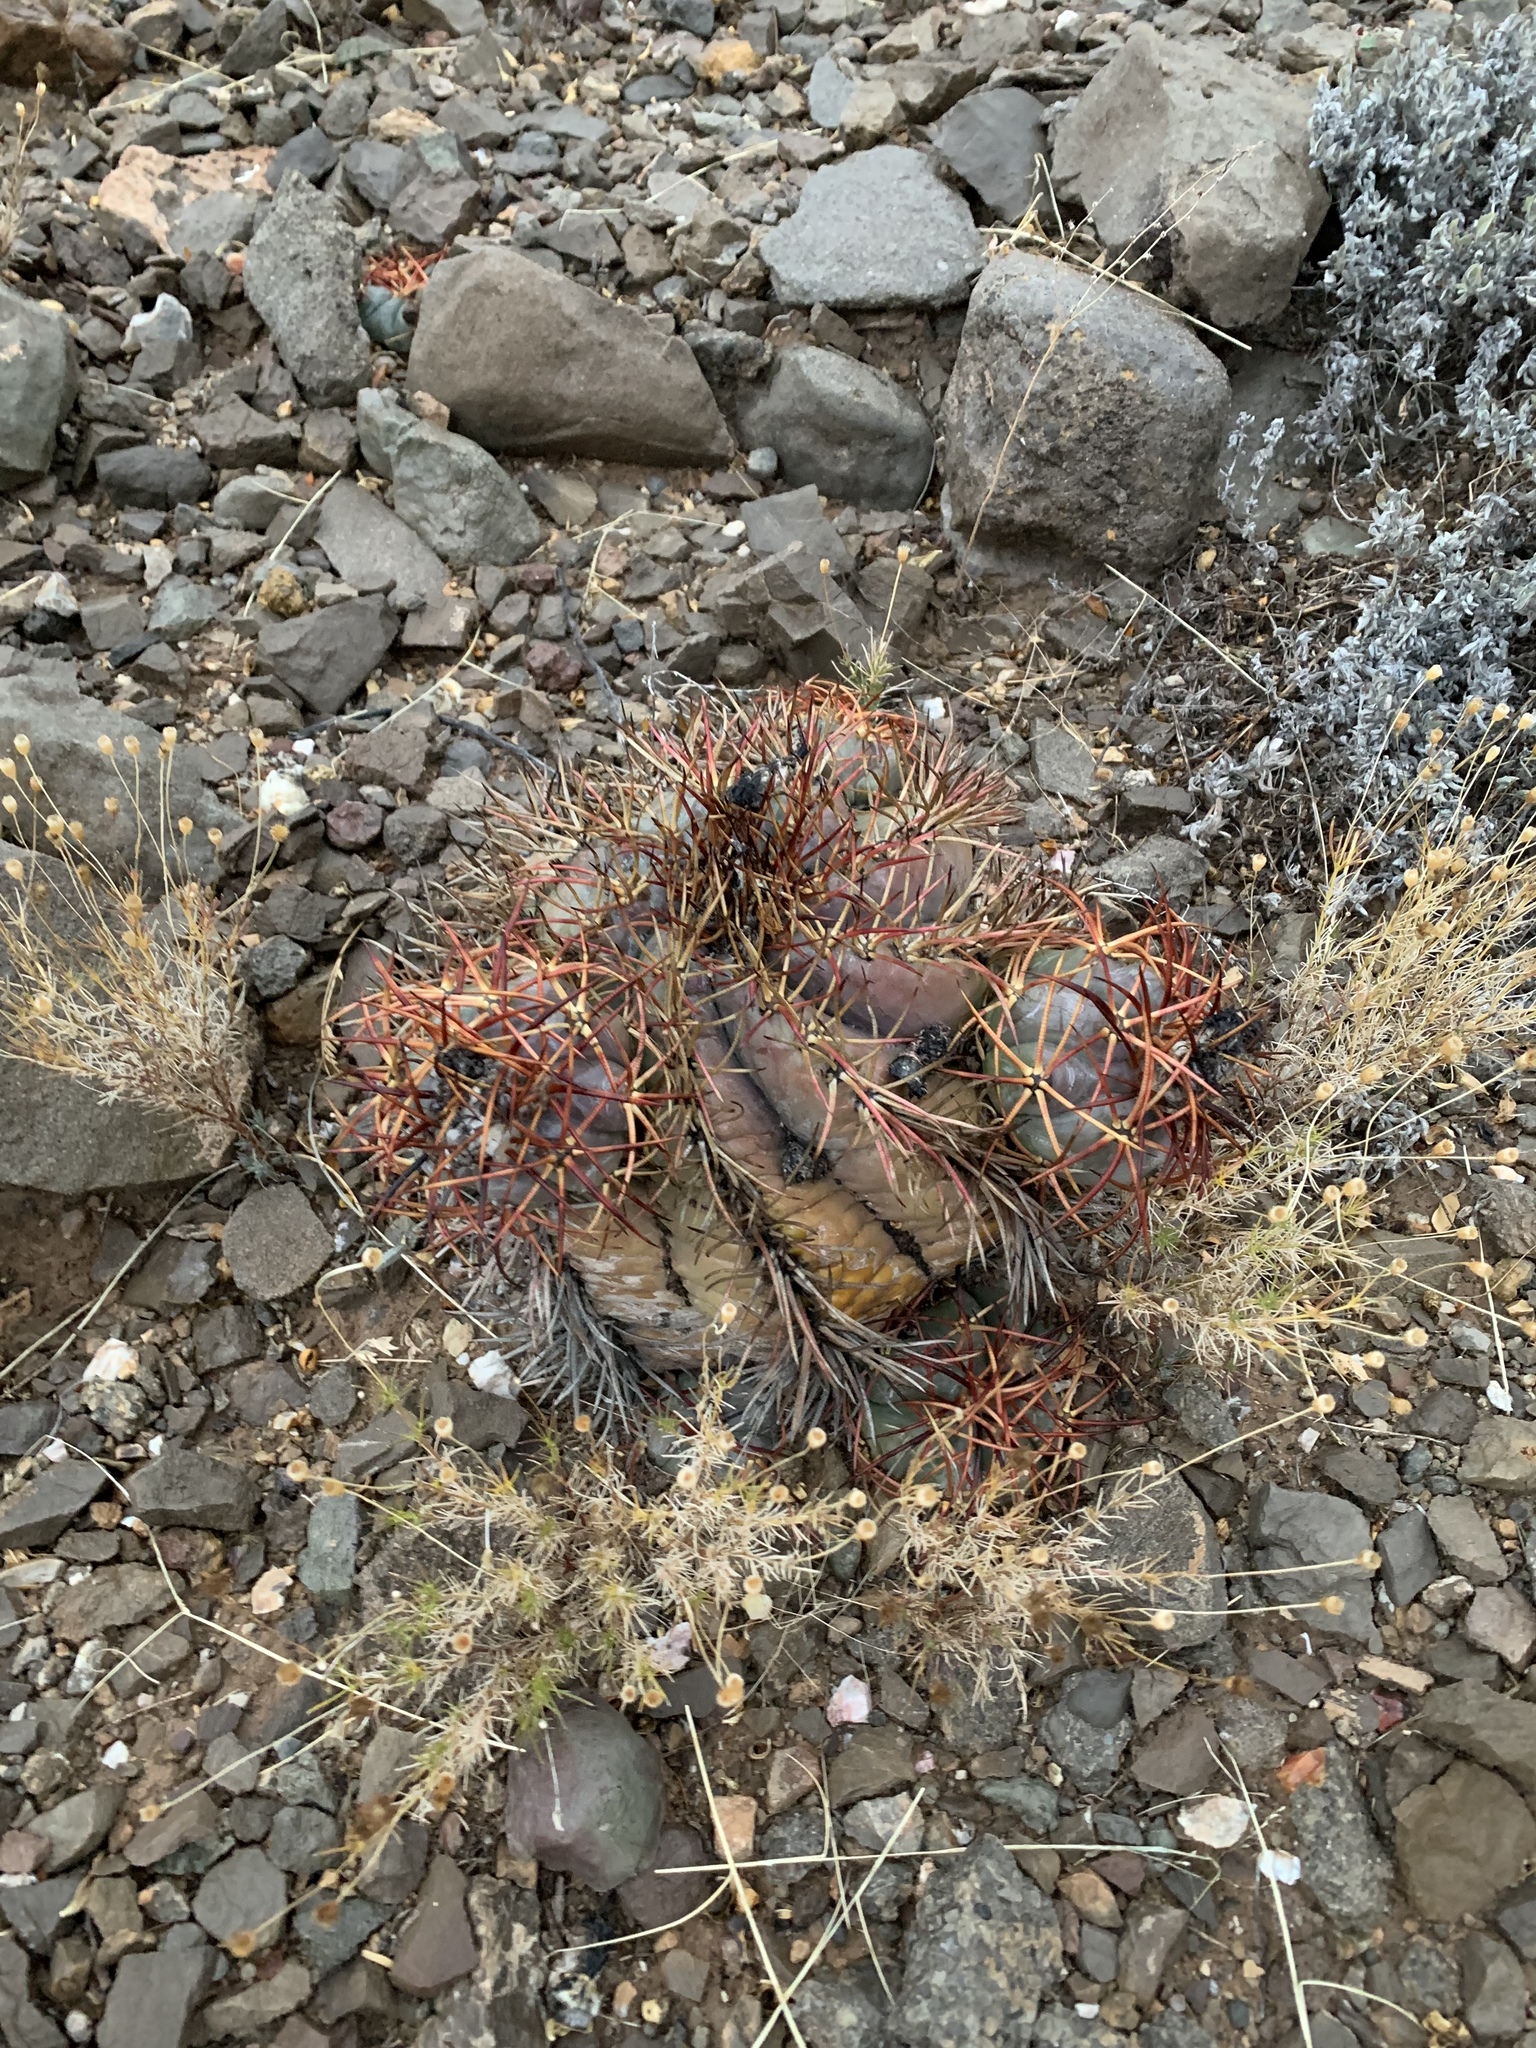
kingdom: Plantae
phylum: Tracheophyta
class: Magnoliopsida
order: Caryophyllales
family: Cactaceae
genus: Echinocactus
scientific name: Echinocactus horizonthalonius
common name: Devilshead
